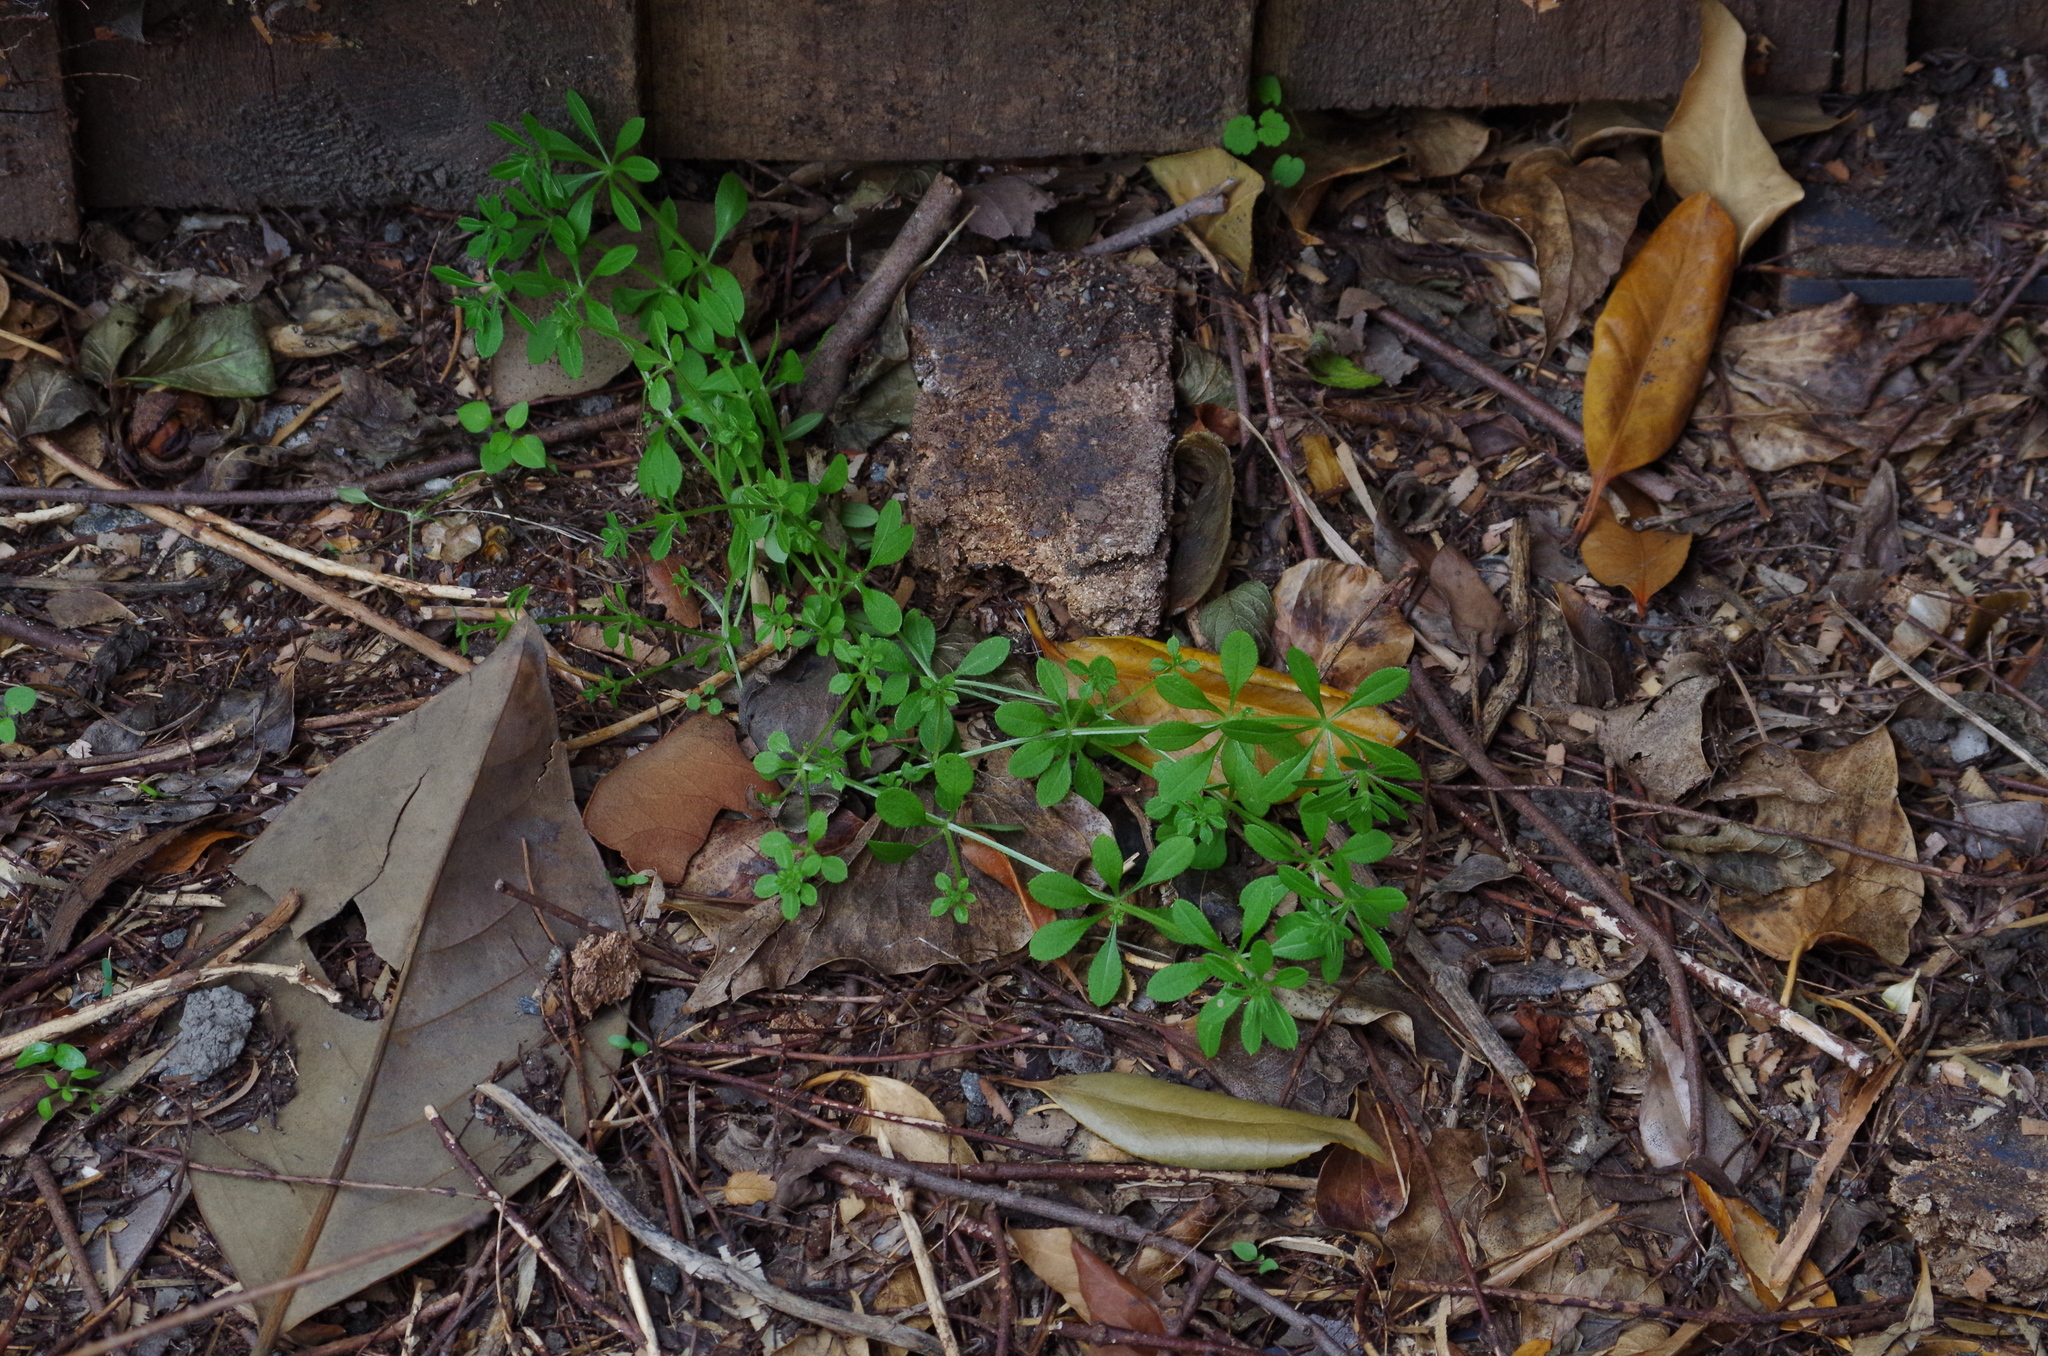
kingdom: Plantae
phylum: Tracheophyta
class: Magnoliopsida
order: Gentianales
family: Rubiaceae
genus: Galium
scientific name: Galium aparine
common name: Cleavers
